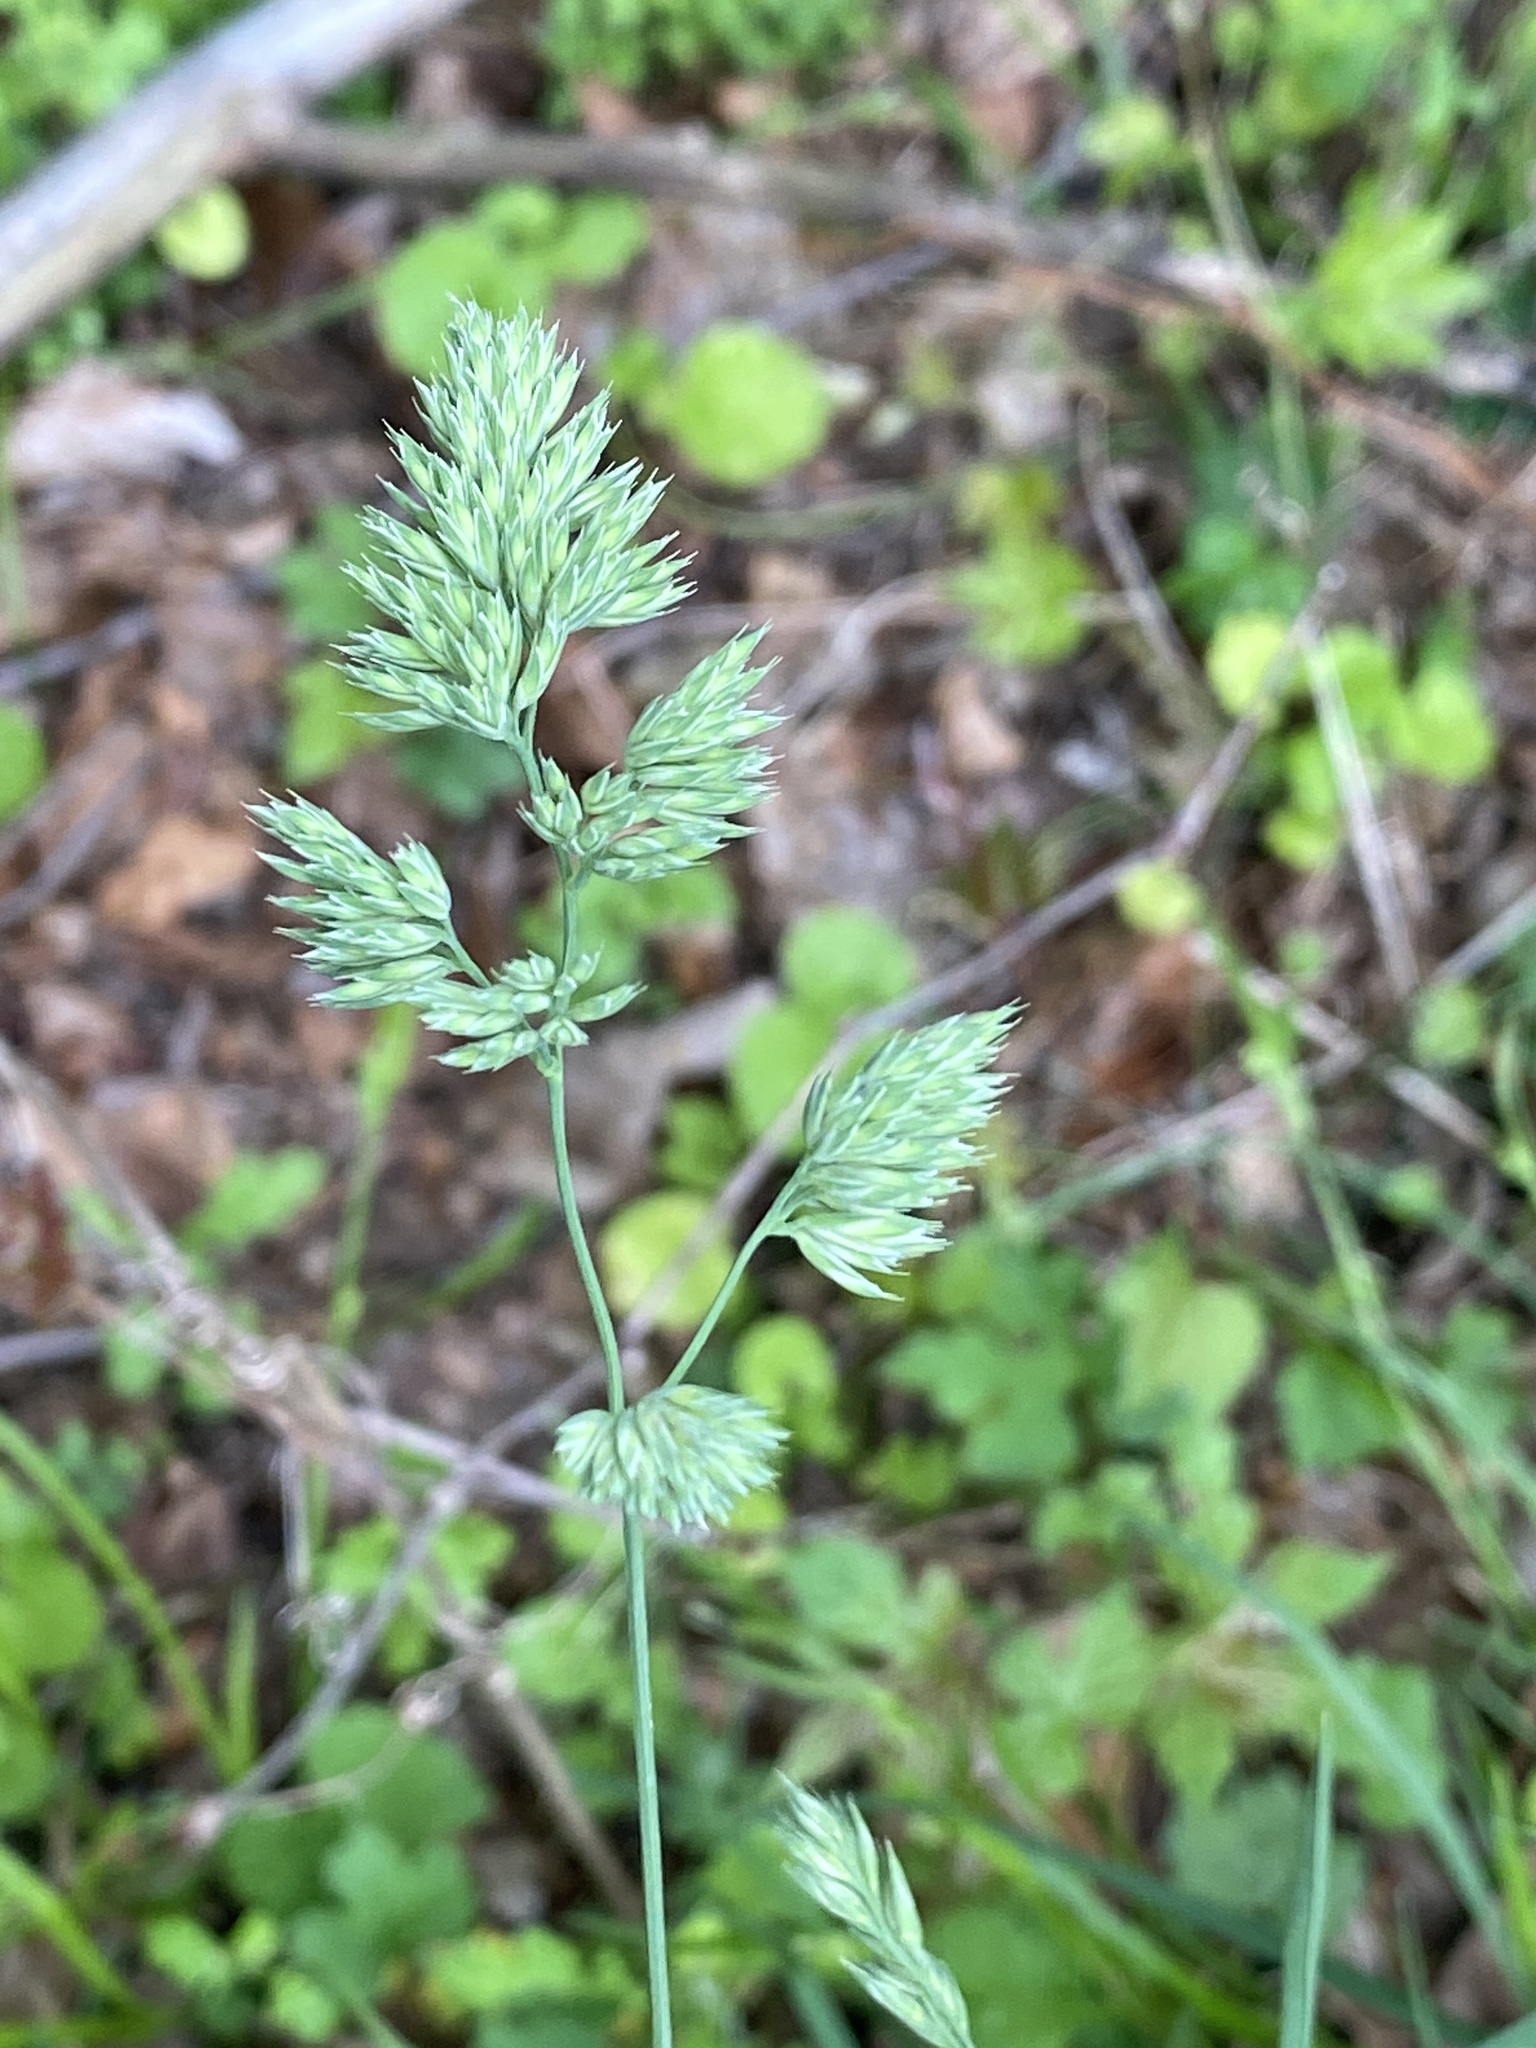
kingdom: Plantae
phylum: Tracheophyta
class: Liliopsida
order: Poales
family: Poaceae
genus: Dactylis
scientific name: Dactylis glomerata
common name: Orchardgrass
